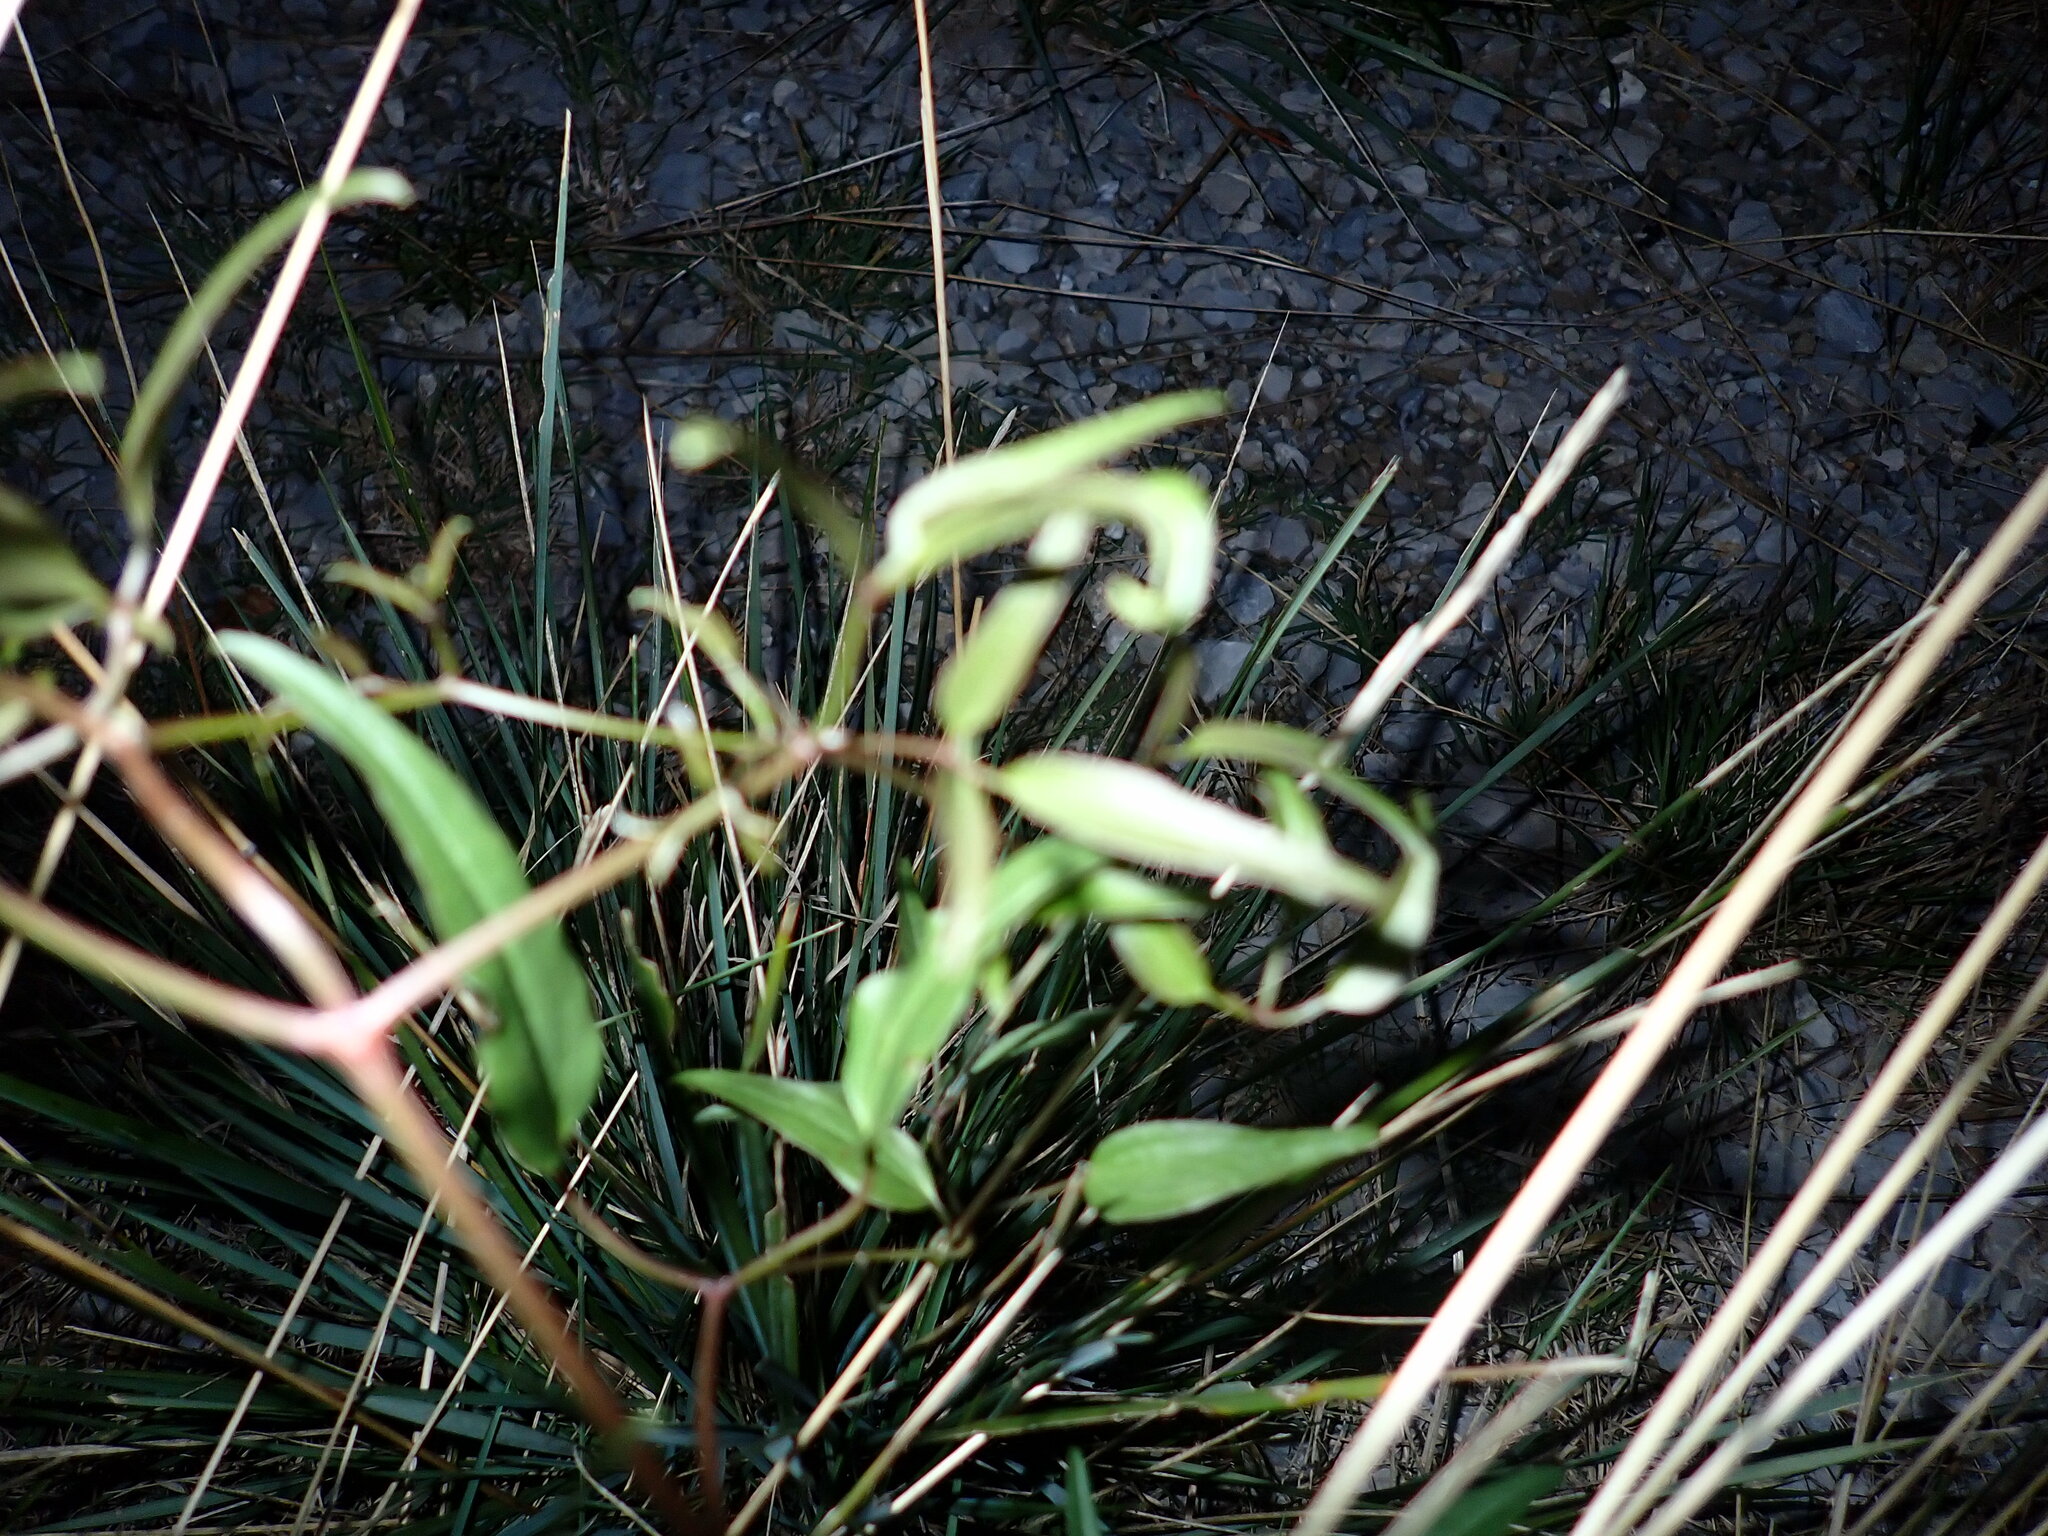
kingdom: Plantae
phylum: Tracheophyta
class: Magnoliopsida
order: Ranunculales
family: Ranunculaceae
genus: Clematis
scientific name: Clematis flammula
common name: Virgin's-bower
